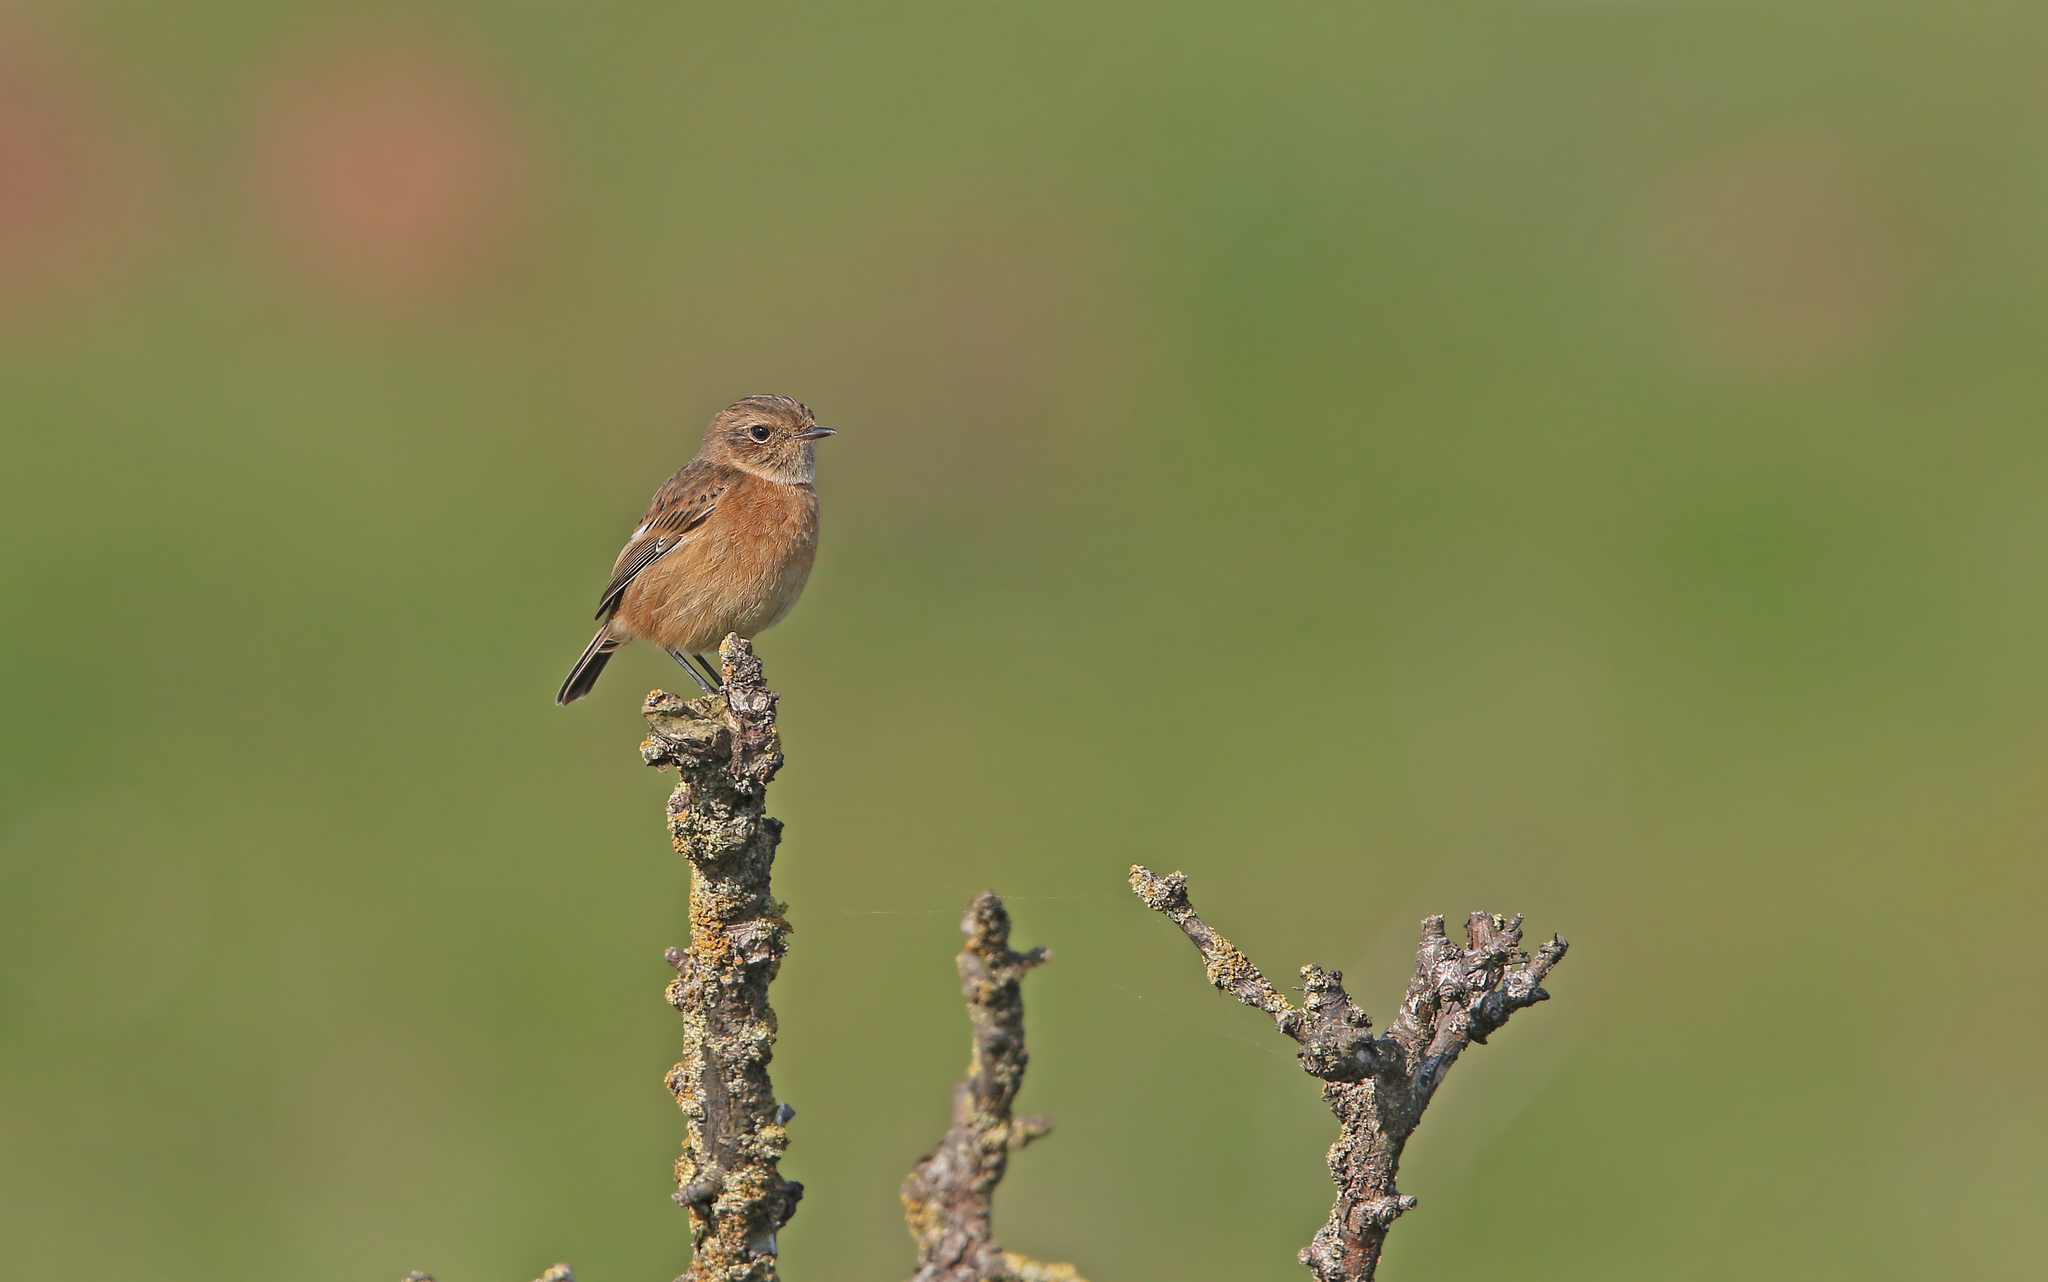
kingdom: Animalia
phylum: Chordata
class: Aves
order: Passeriformes
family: Muscicapidae
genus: Saxicola
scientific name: Saxicola rubicola
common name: European stonechat
